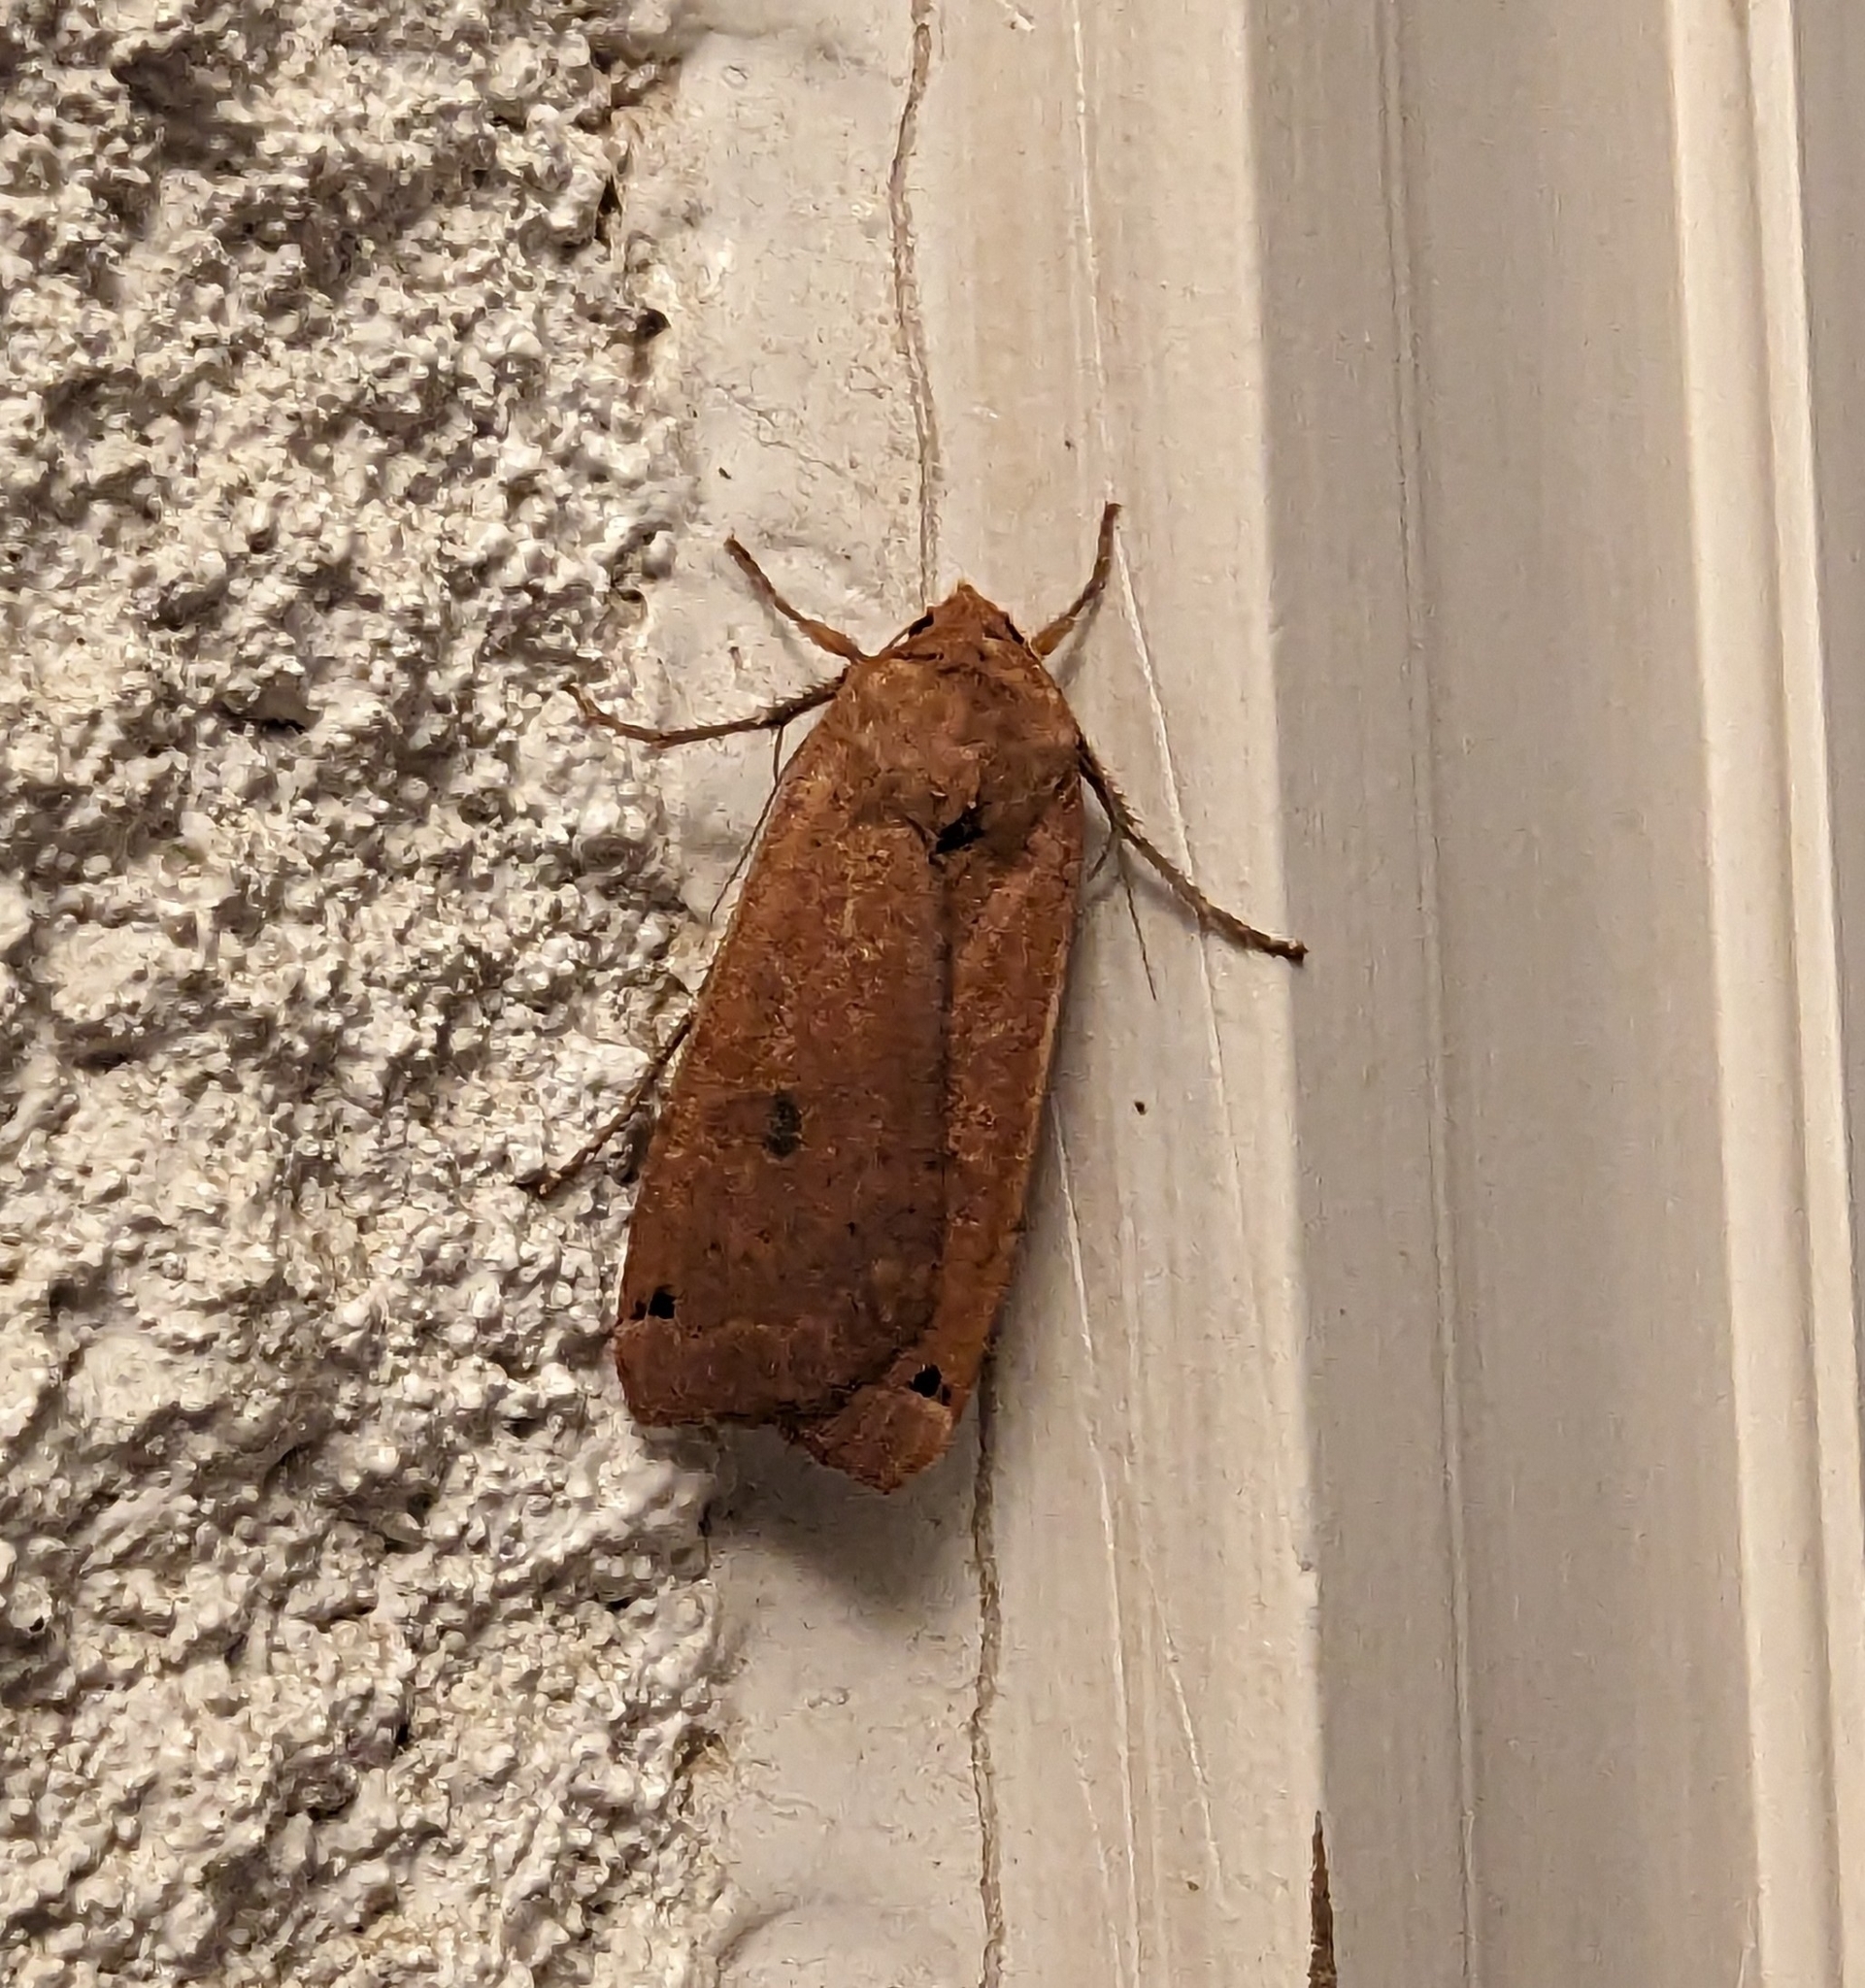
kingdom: Animalia
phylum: Arthropoda
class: Insecta
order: Lepidoptera
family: Noctuidae
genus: Noctua
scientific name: Noctua pronuba
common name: Large yellow underwing
